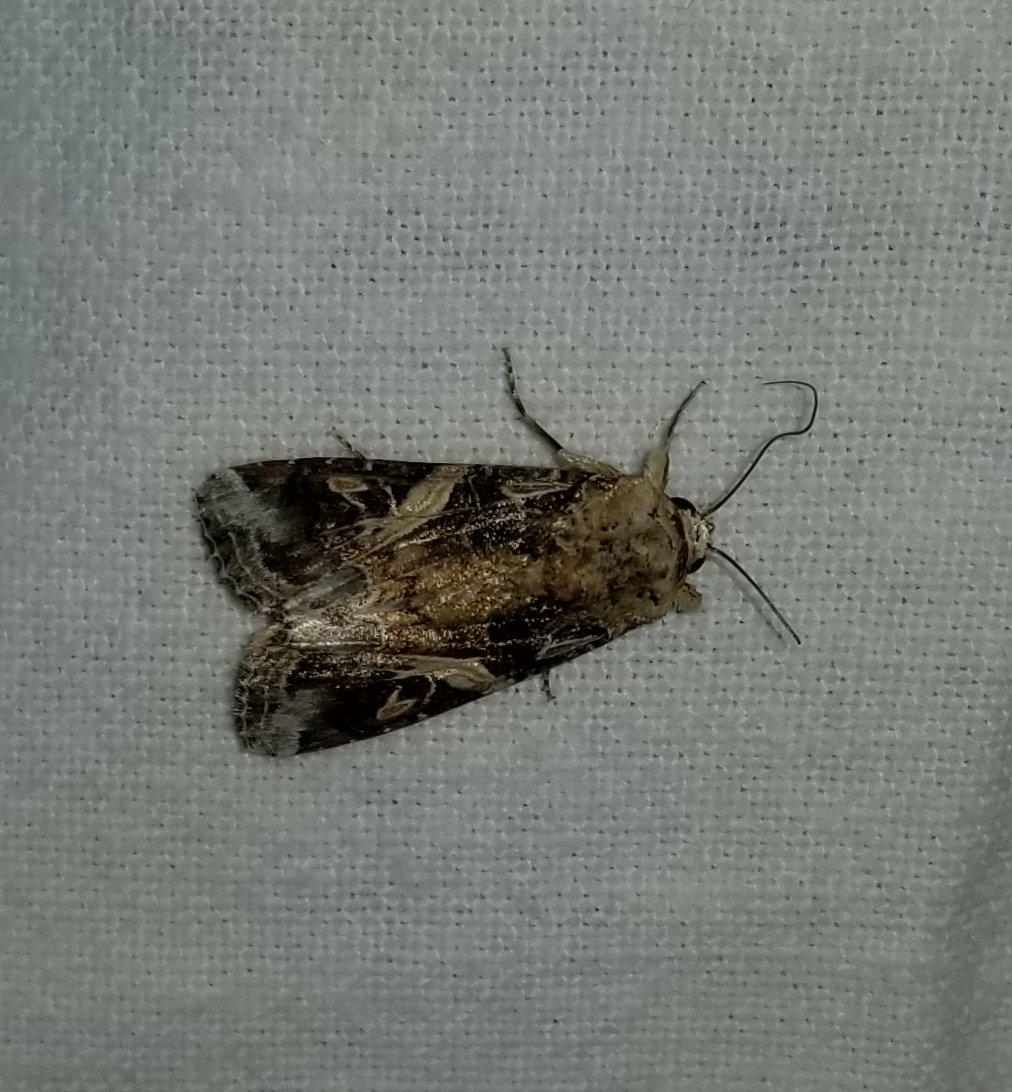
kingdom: Animalia
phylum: Arthropoda
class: Insecta
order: Lepidoptera
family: Noctuidae
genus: Spodoptera
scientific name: Spodoptera ornithogalli
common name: Yellow-striped armyworm
